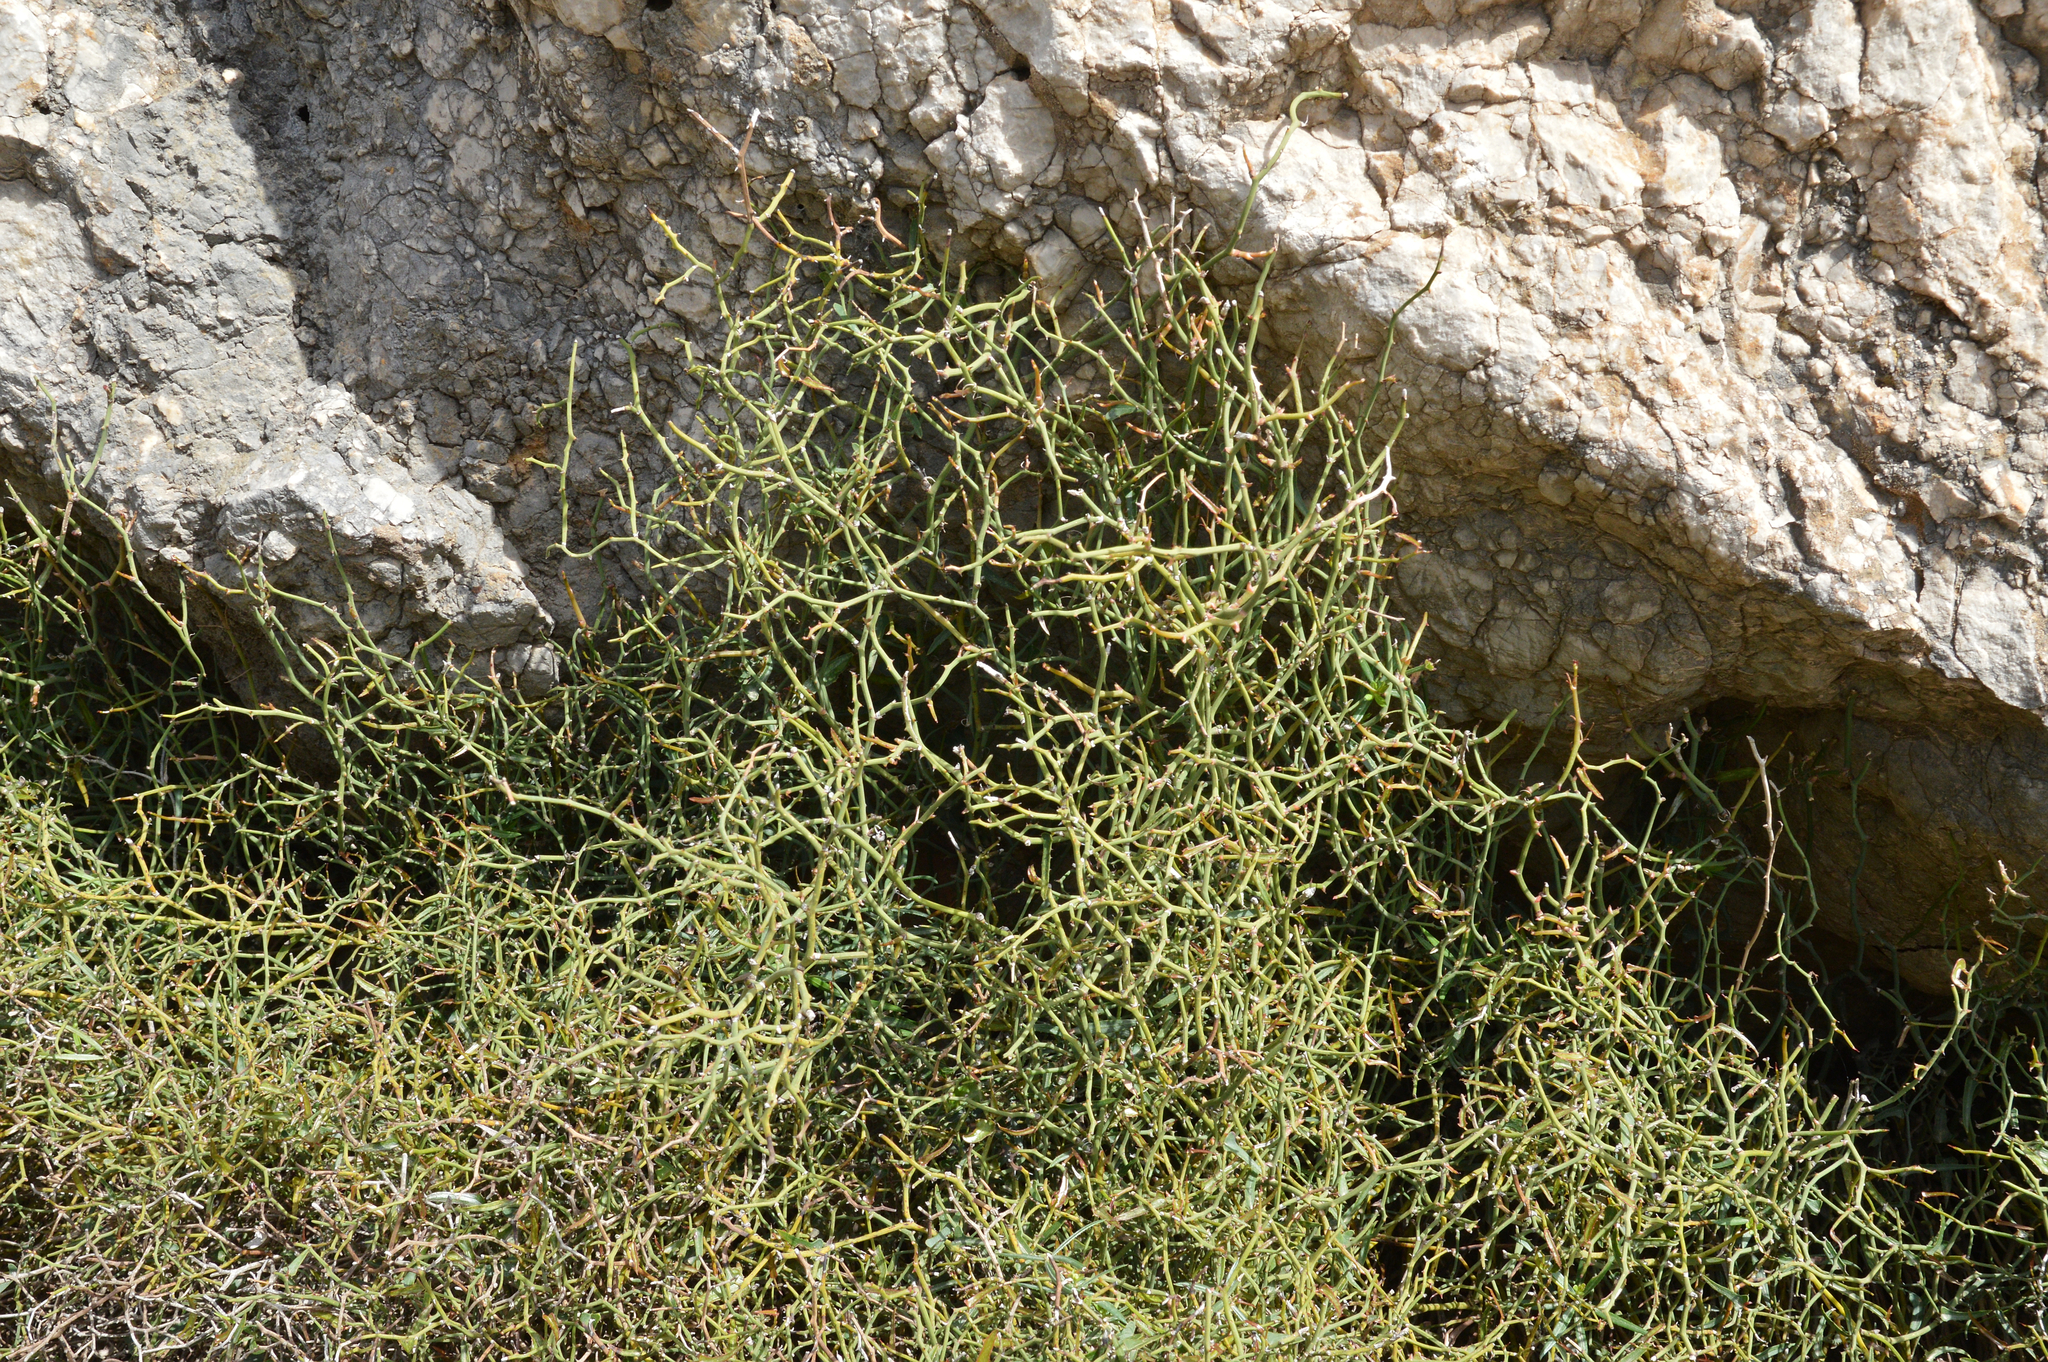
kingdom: Plantae
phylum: Tracheophyta
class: Liliopsida
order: Liliales
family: Smilacaceae
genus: Smilax
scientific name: Smilax aspera
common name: Common smilax
